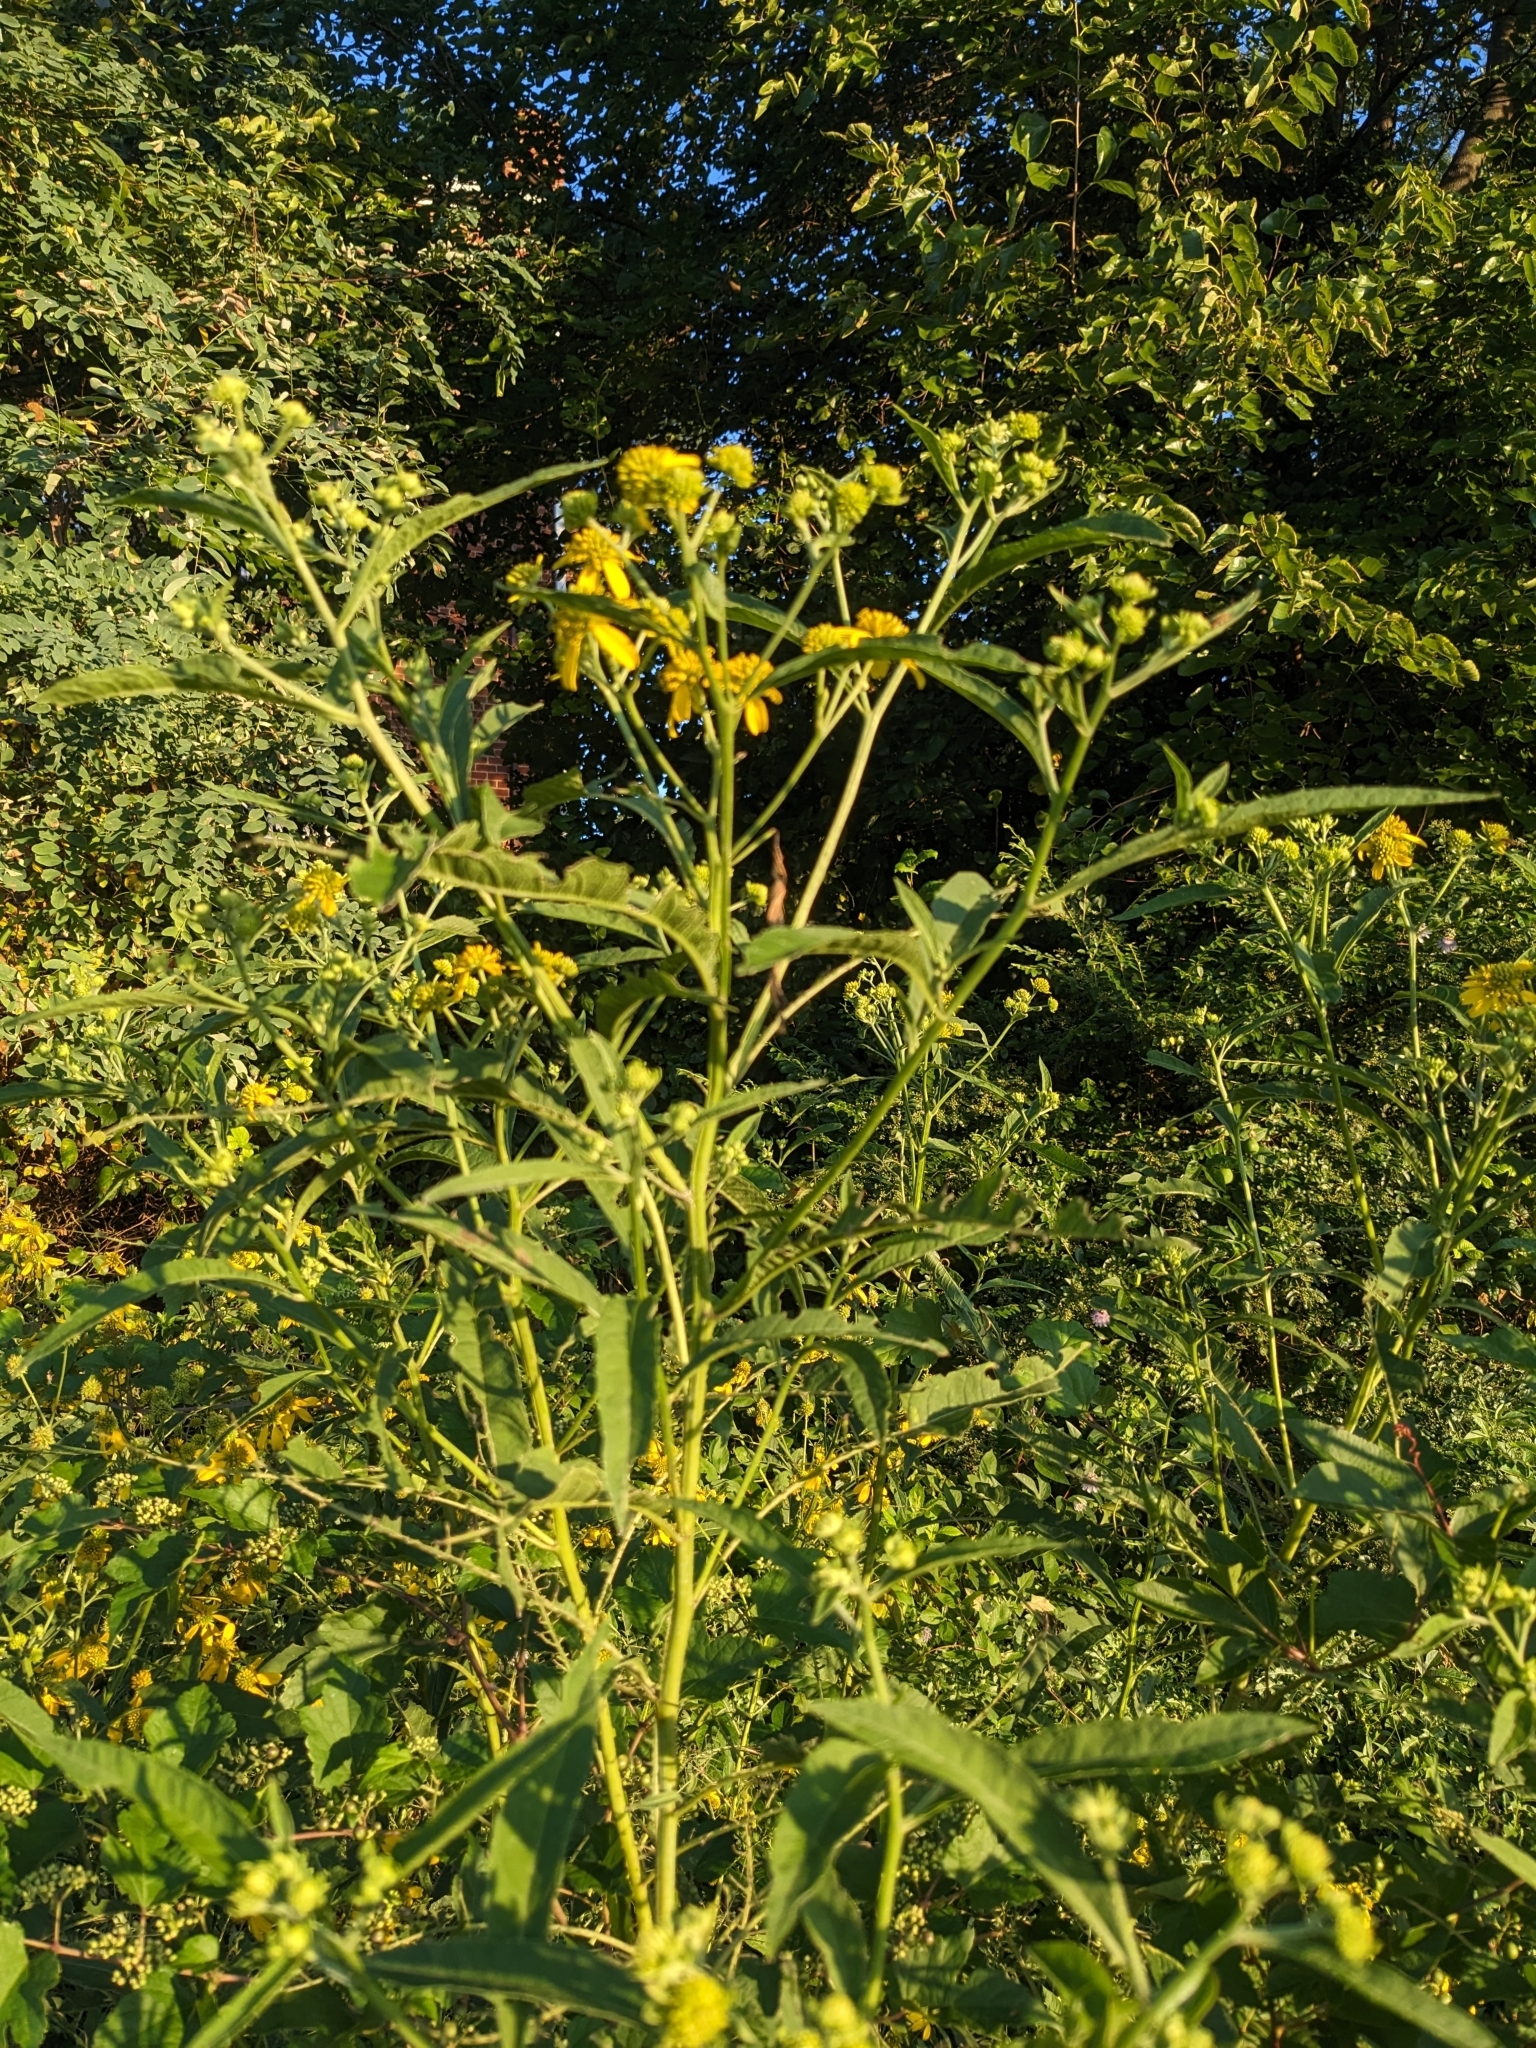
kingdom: Plantae
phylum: Tracheophyta
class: Magnoliopsida
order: Asterales
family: Asteraceae
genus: Verbesina
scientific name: Verbesina alternifolia
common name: Wingstem
